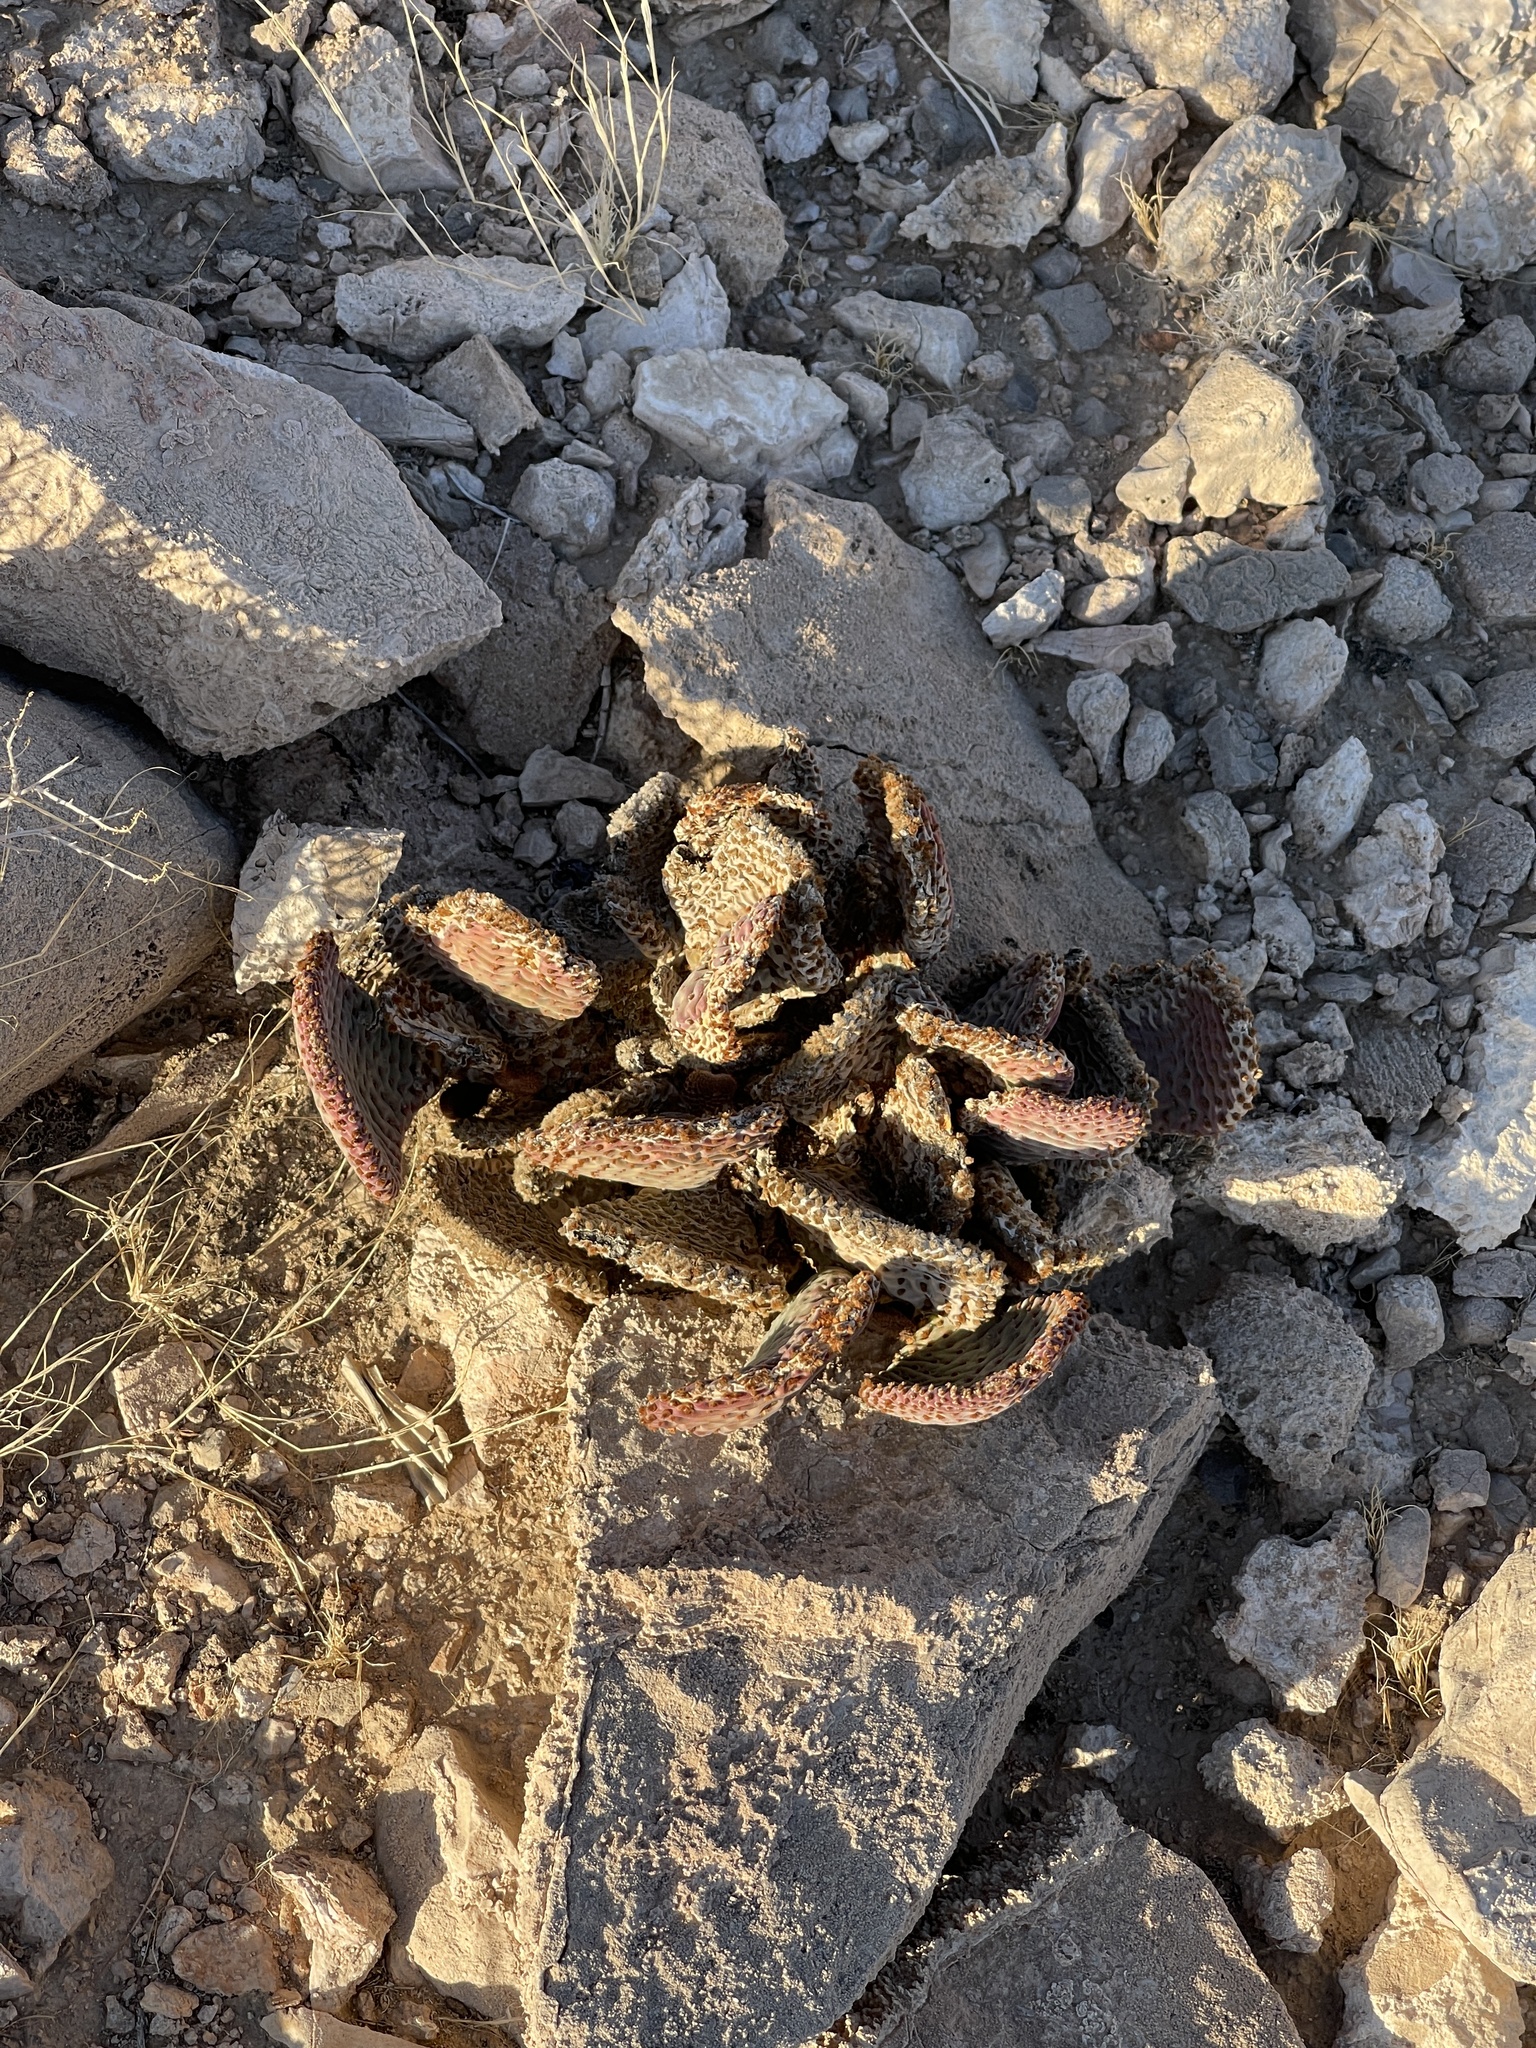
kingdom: Plantae
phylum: Tracheophyta
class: Magnoliopsida
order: Caryophyllales
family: Cactaceae
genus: Opuntia
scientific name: Opuntia basilaris
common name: Beavertail prickly-pear
